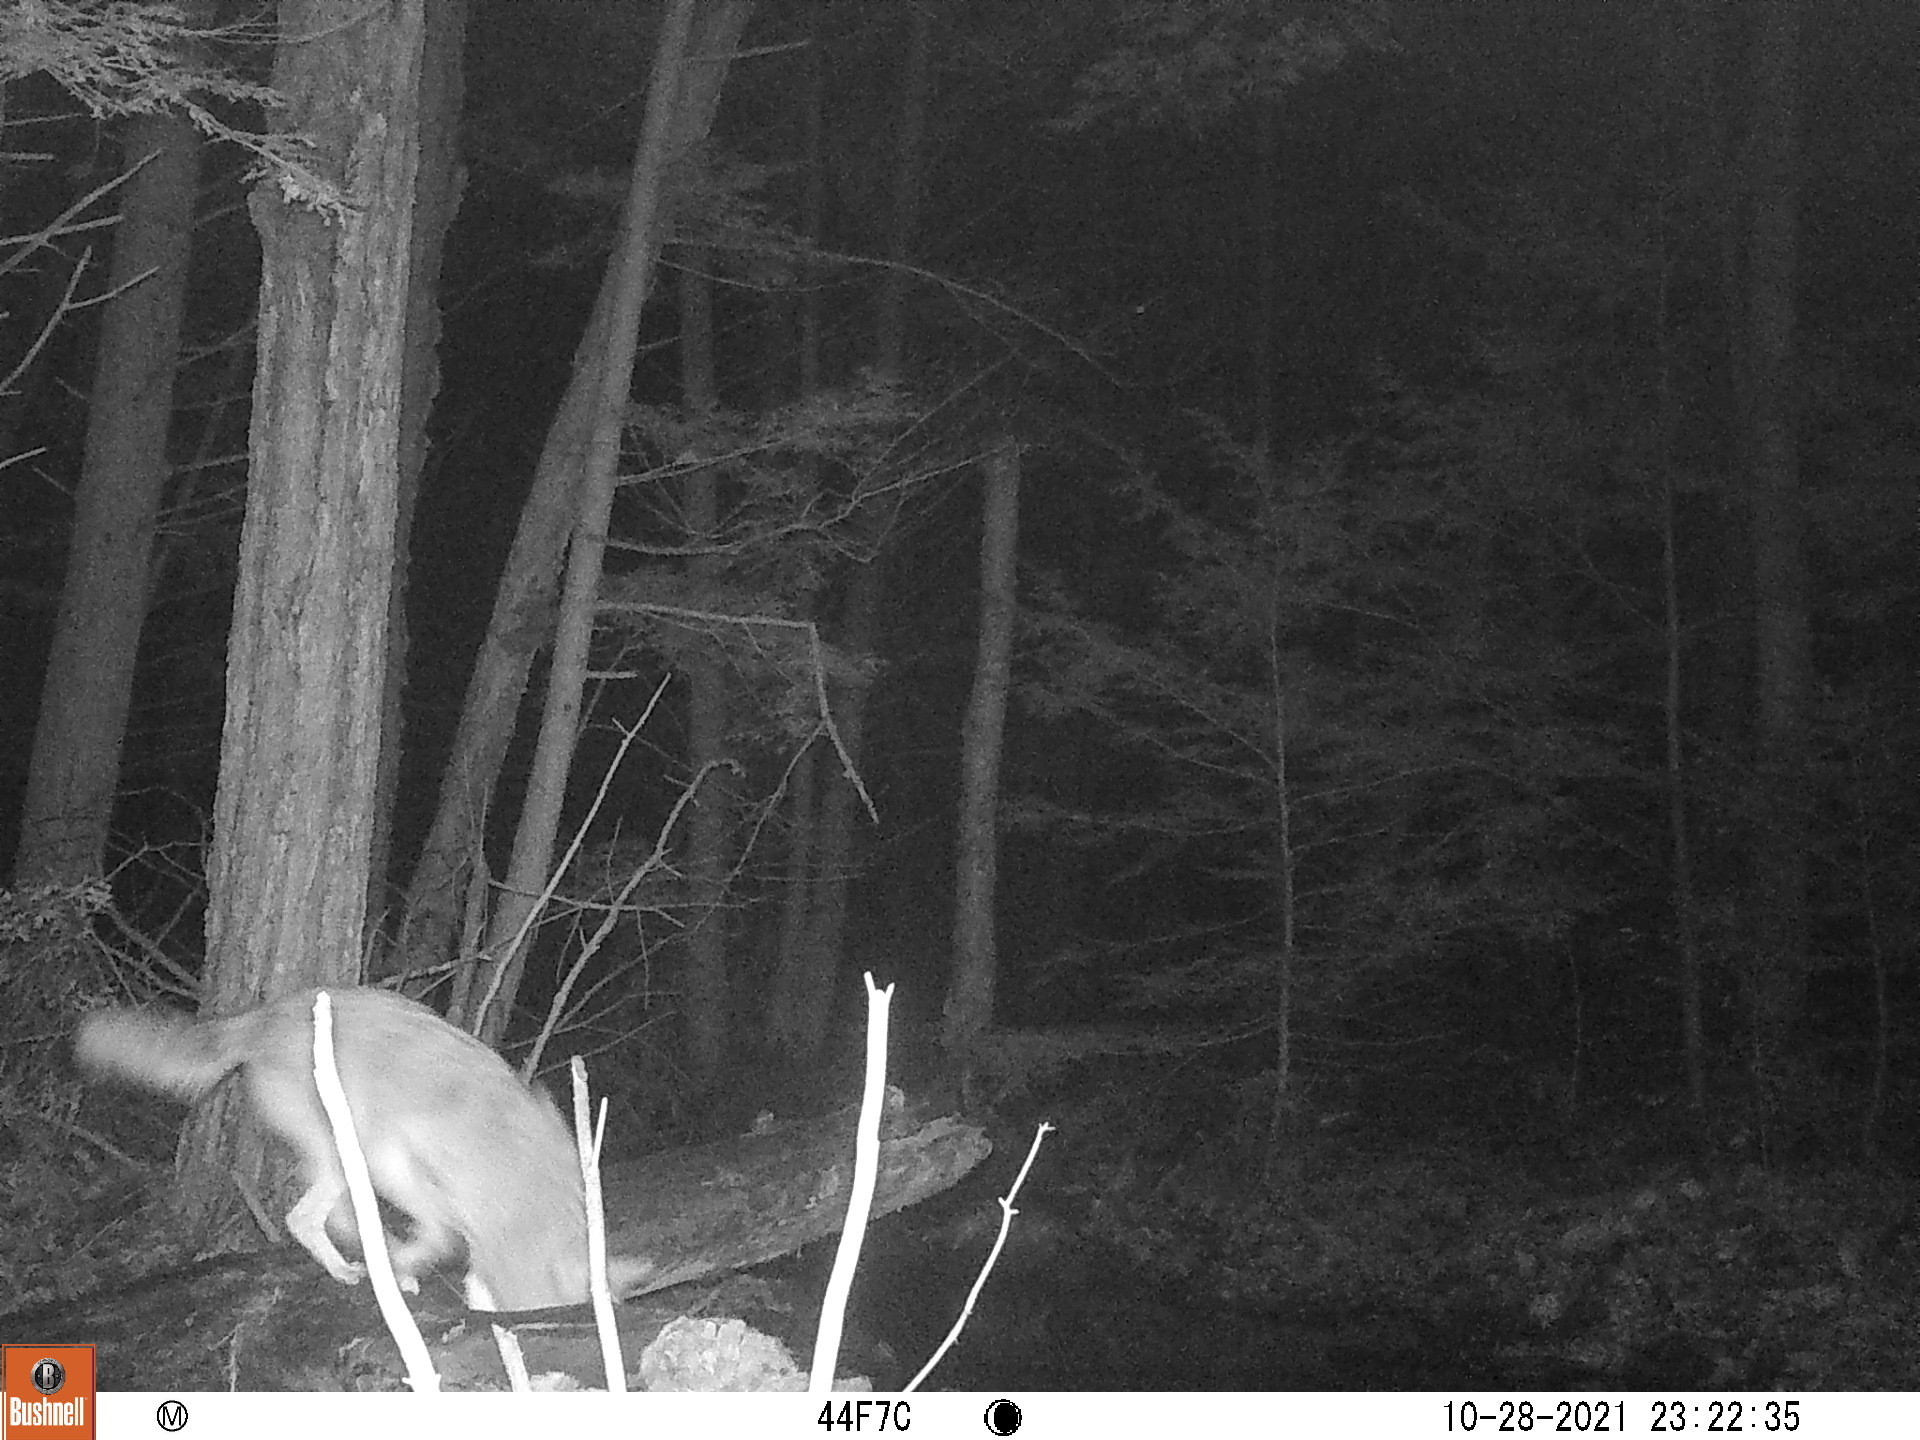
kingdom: Animalia
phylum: Chordata
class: Mammalia
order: Carnivora
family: Canidae
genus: Canis
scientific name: Canis latrans
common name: Coyote
